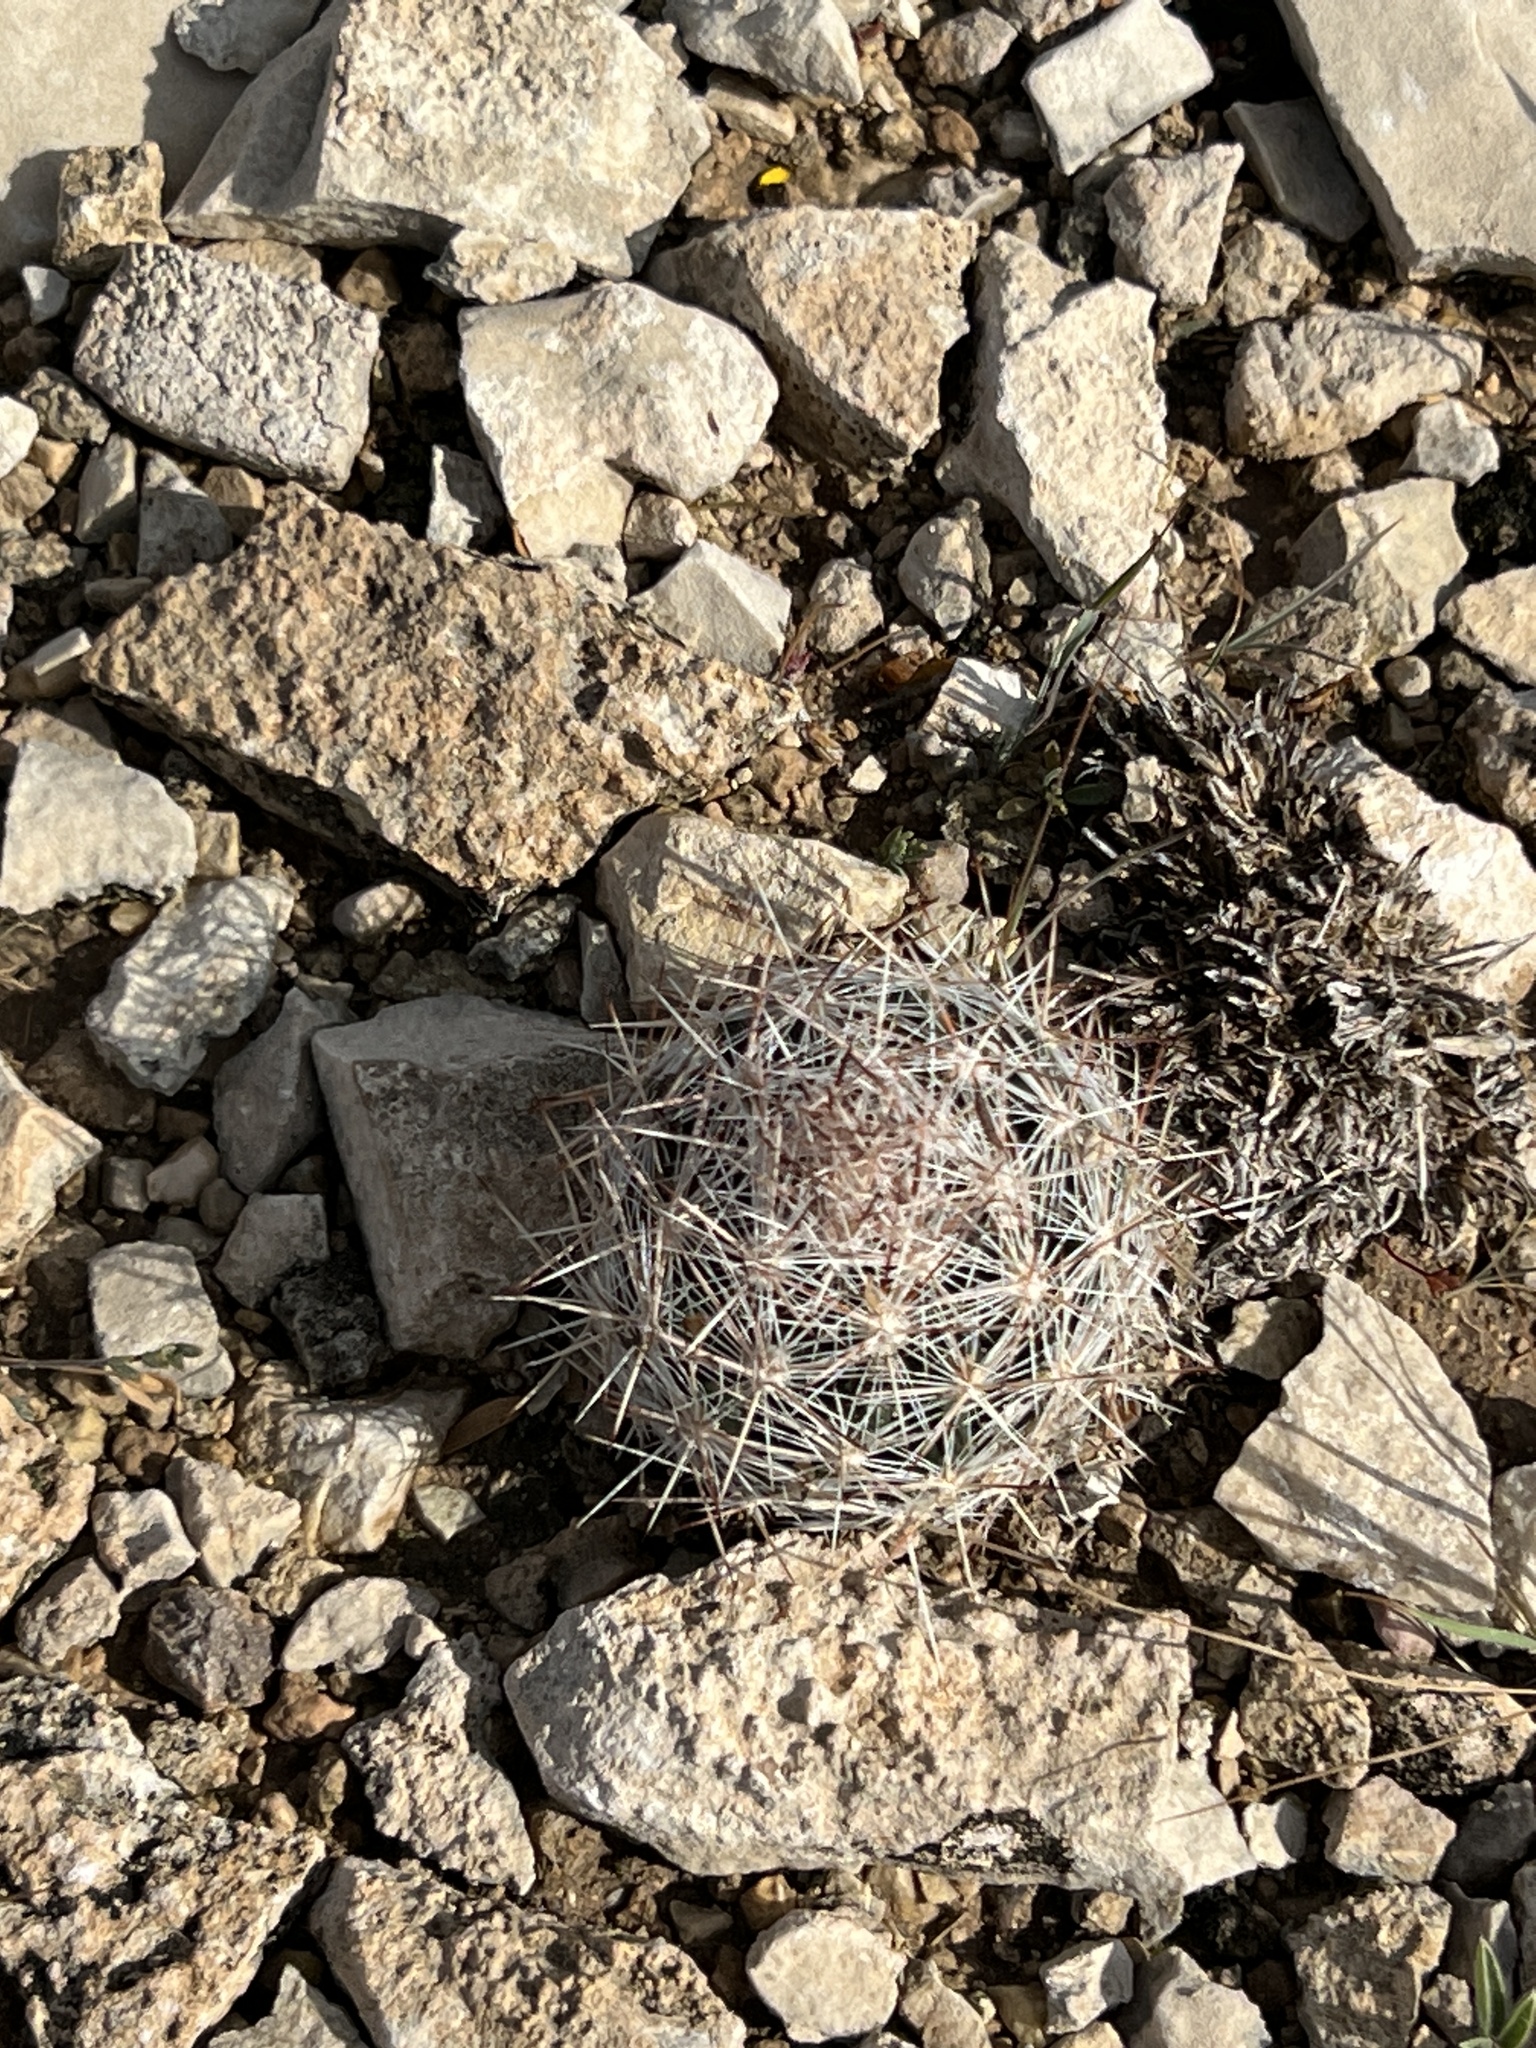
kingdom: Plantae
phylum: Tracheophyta
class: Magnoliopsida
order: Caryophyllales
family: Cactaceae
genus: Pelecyphora
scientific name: Pelecyphora vivipara
